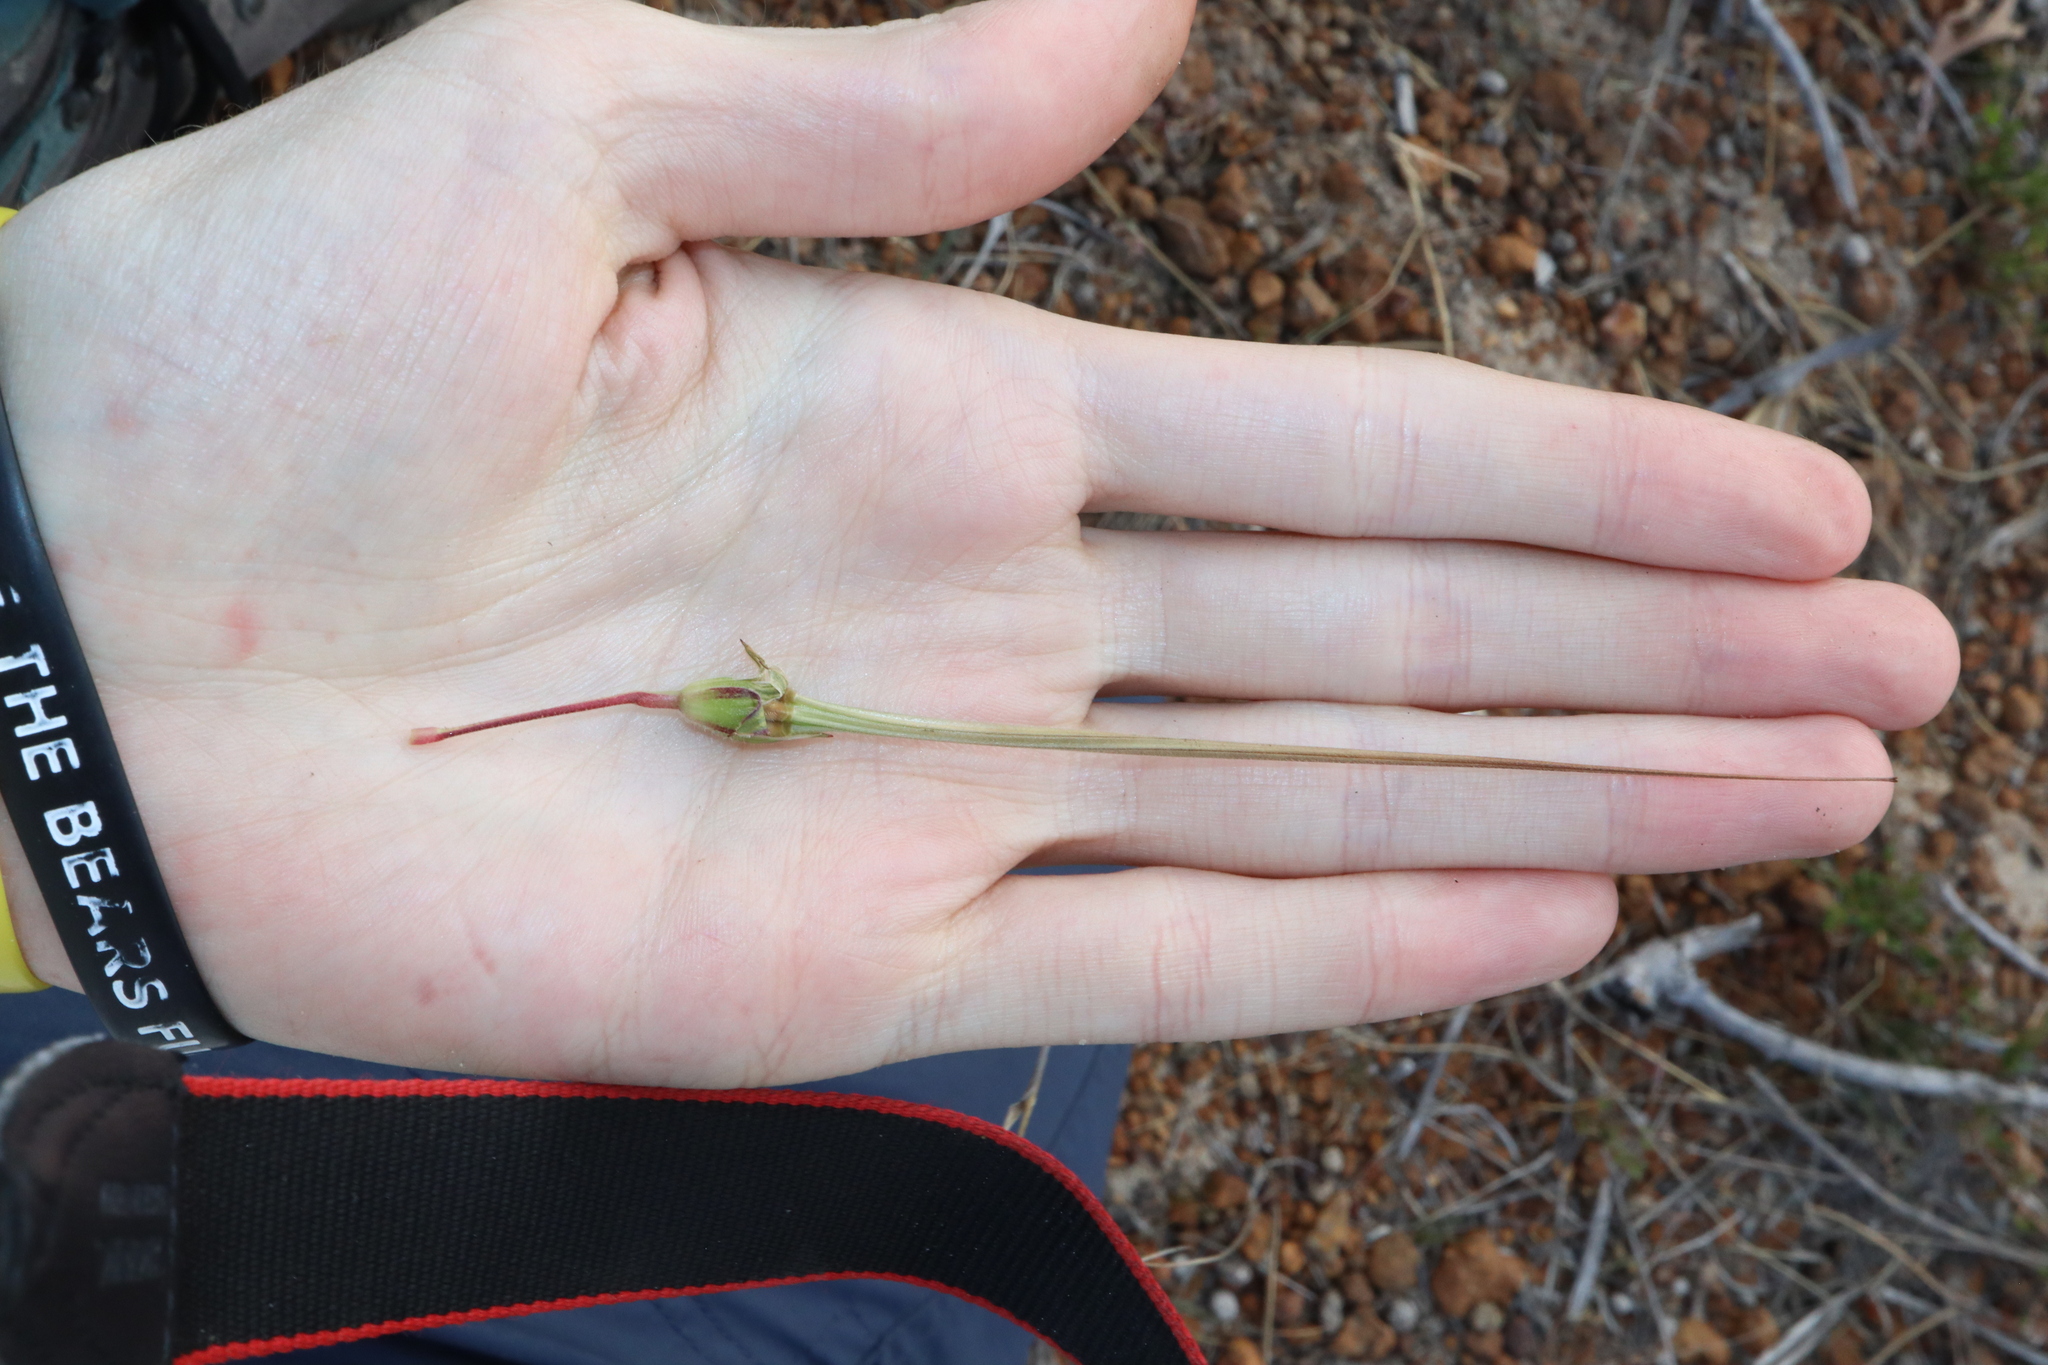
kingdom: Plantae
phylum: Tracheophyta
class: Magnoliopsida
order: Geraniales
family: Geraniaceae
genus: Erodium
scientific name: Erodium botrys
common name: Mediterranean stork's-bill
